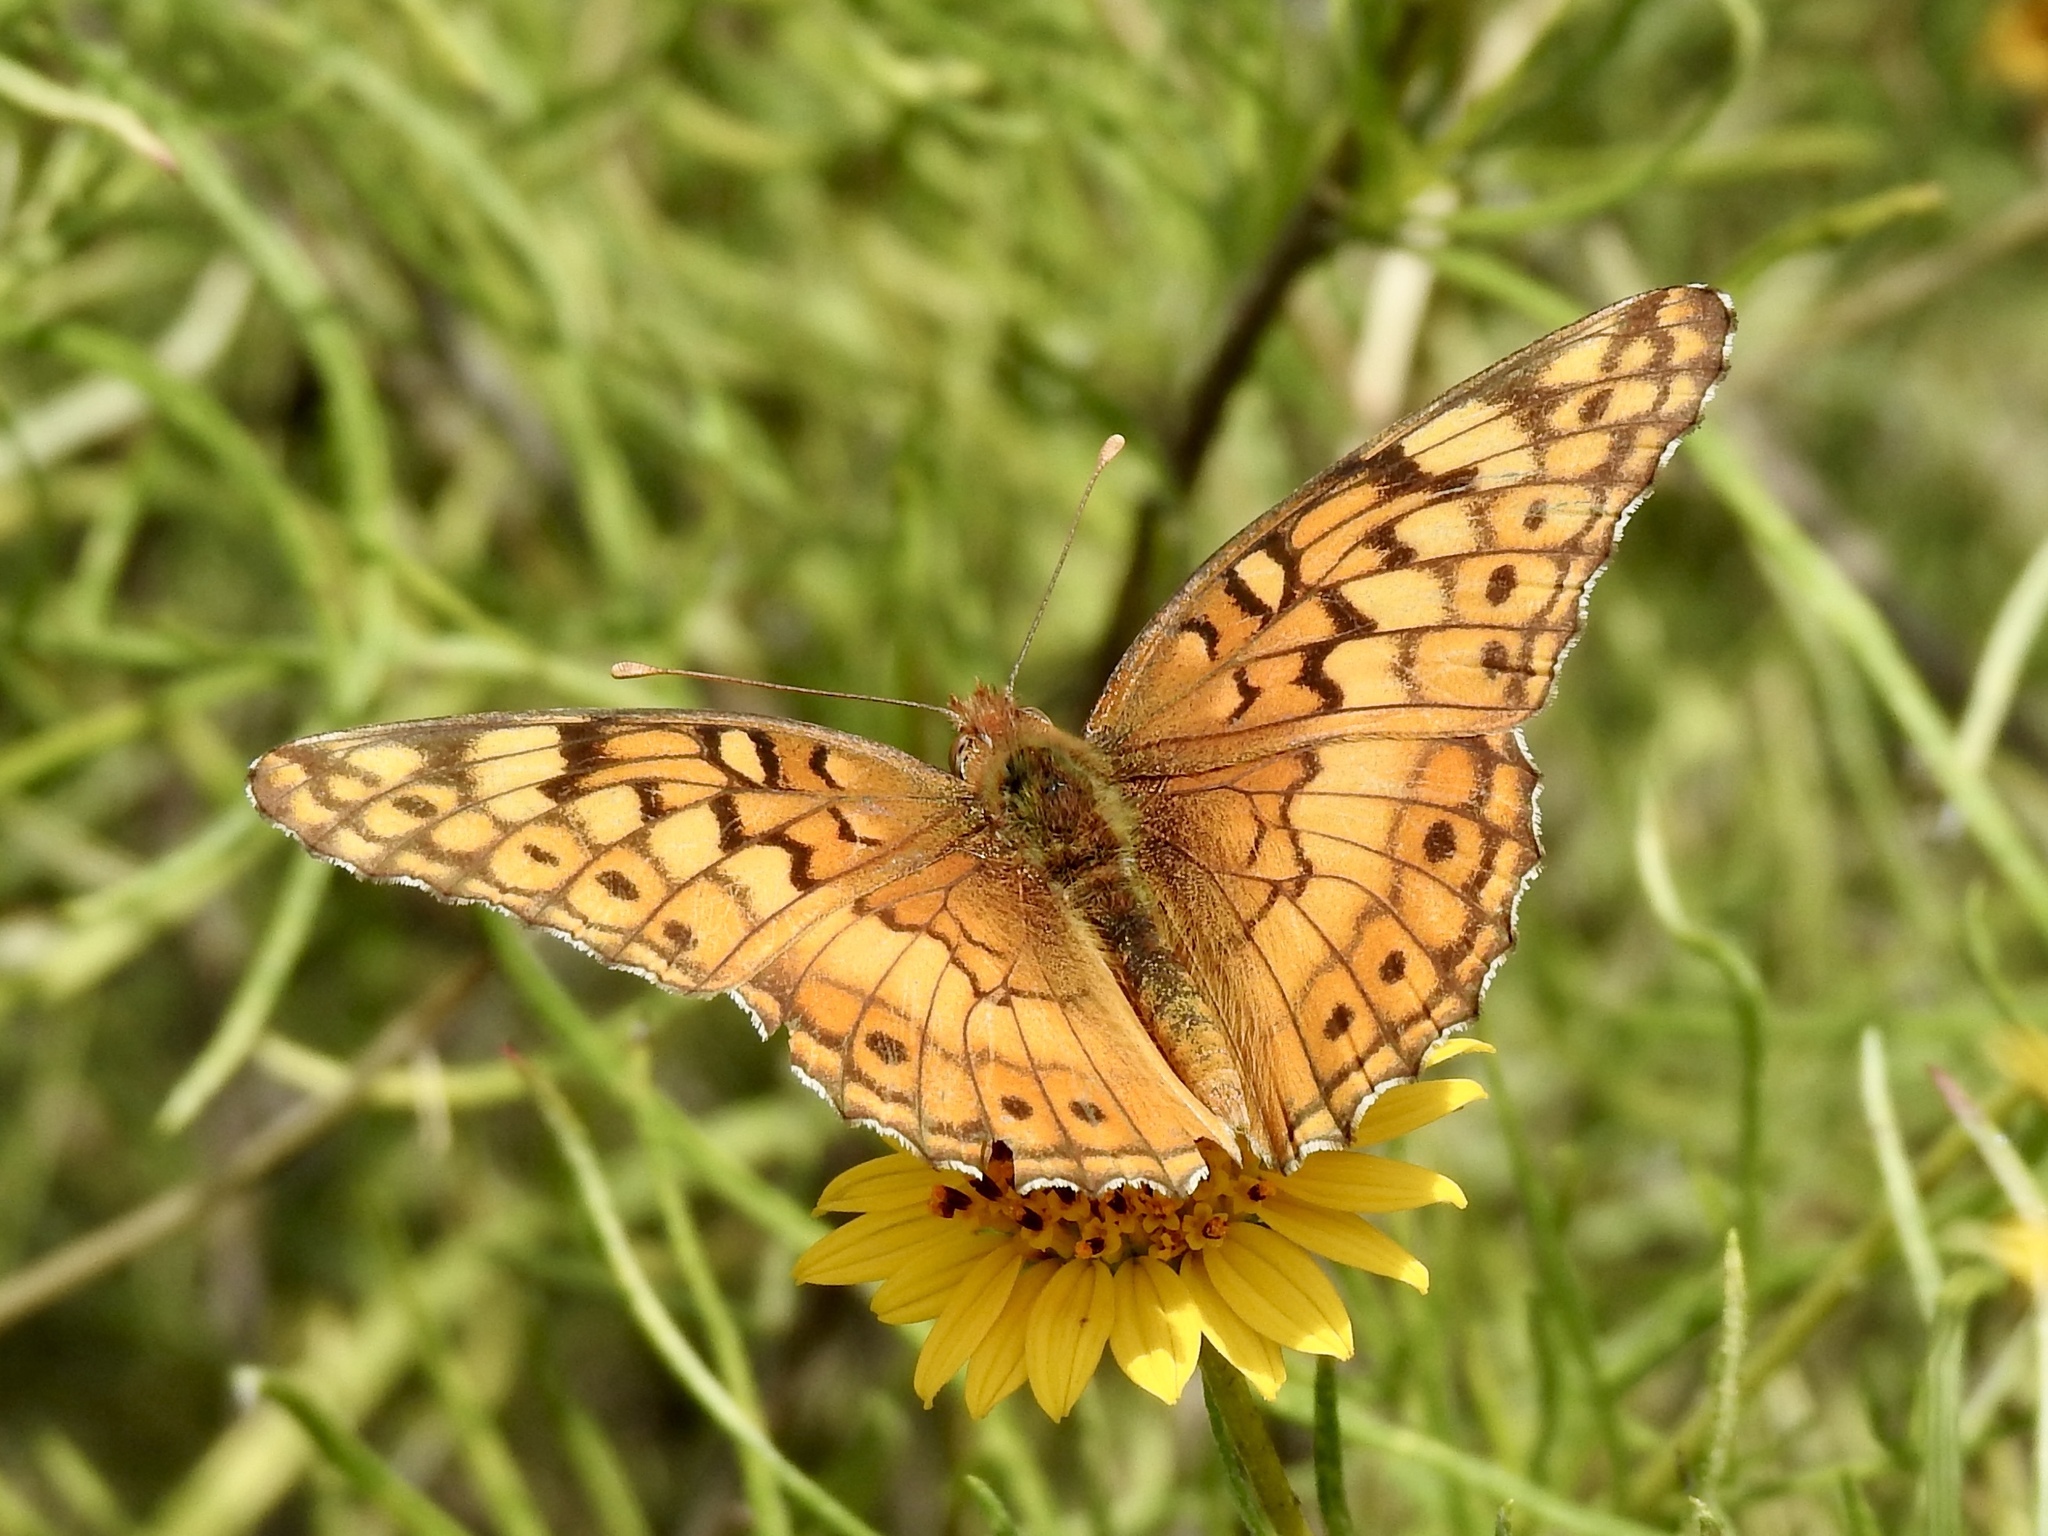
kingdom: Animalia
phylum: Arthropoda
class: Insecta
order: Lepidoptera
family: Nymphalidae
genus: Euptoieta
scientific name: Euptoieta claudia
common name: Variegated fritillary
